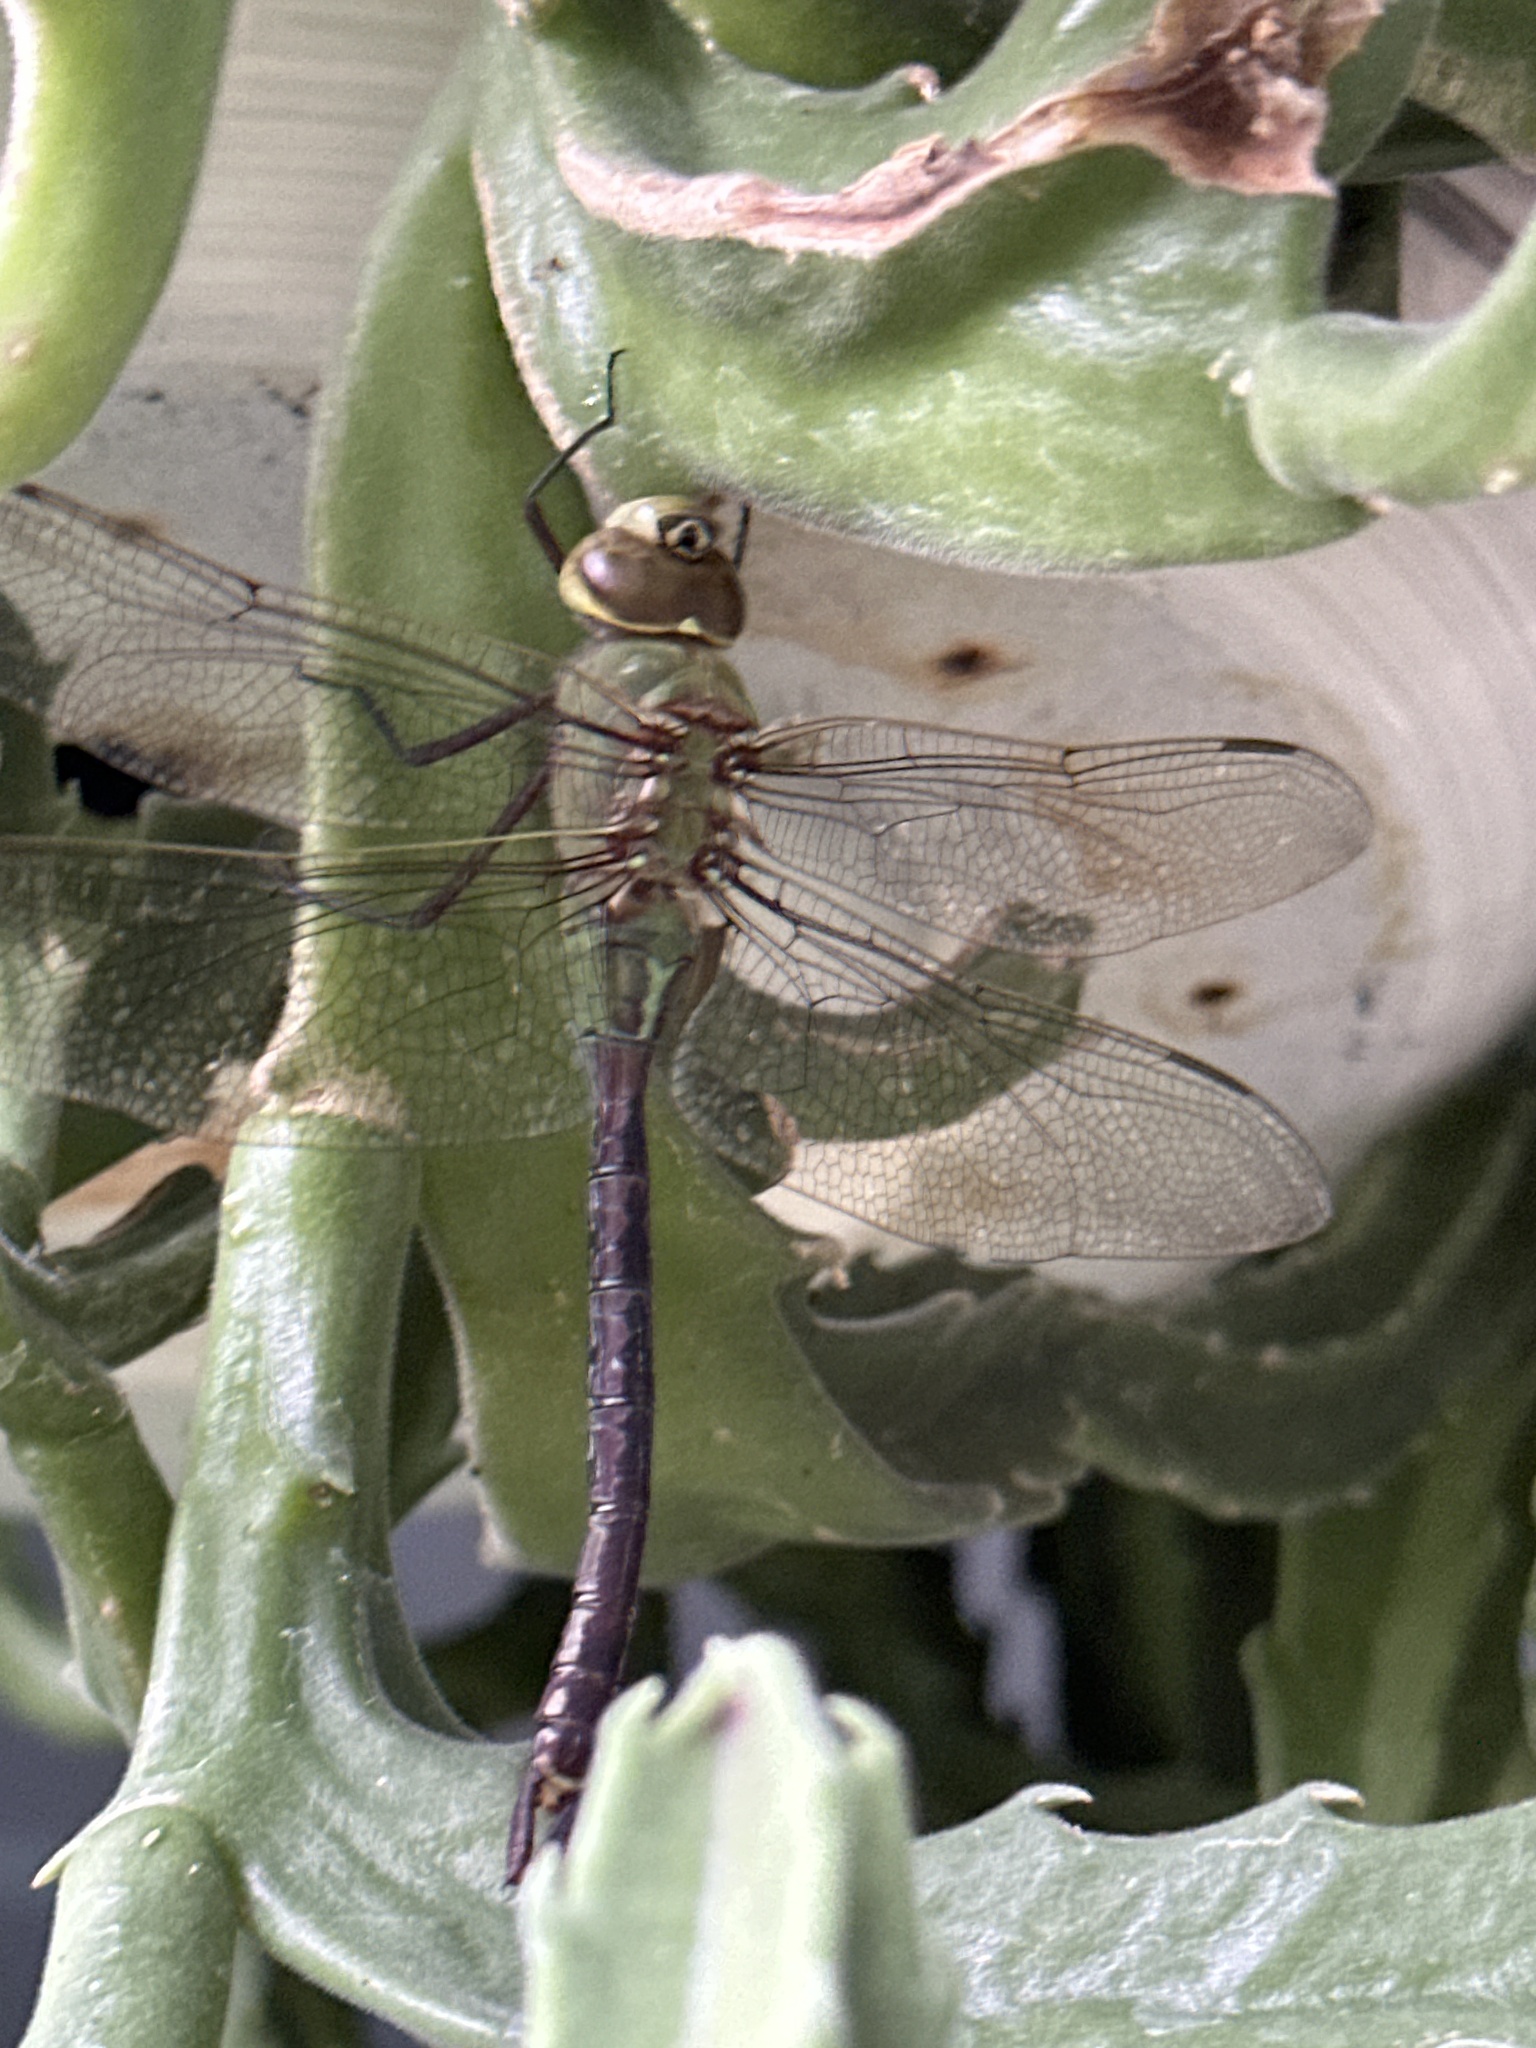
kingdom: Animalia
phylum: Arthropoda
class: Insecta
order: Odonata
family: Aeshnidae
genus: Anax
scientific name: Anax junius
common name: Common green darner
